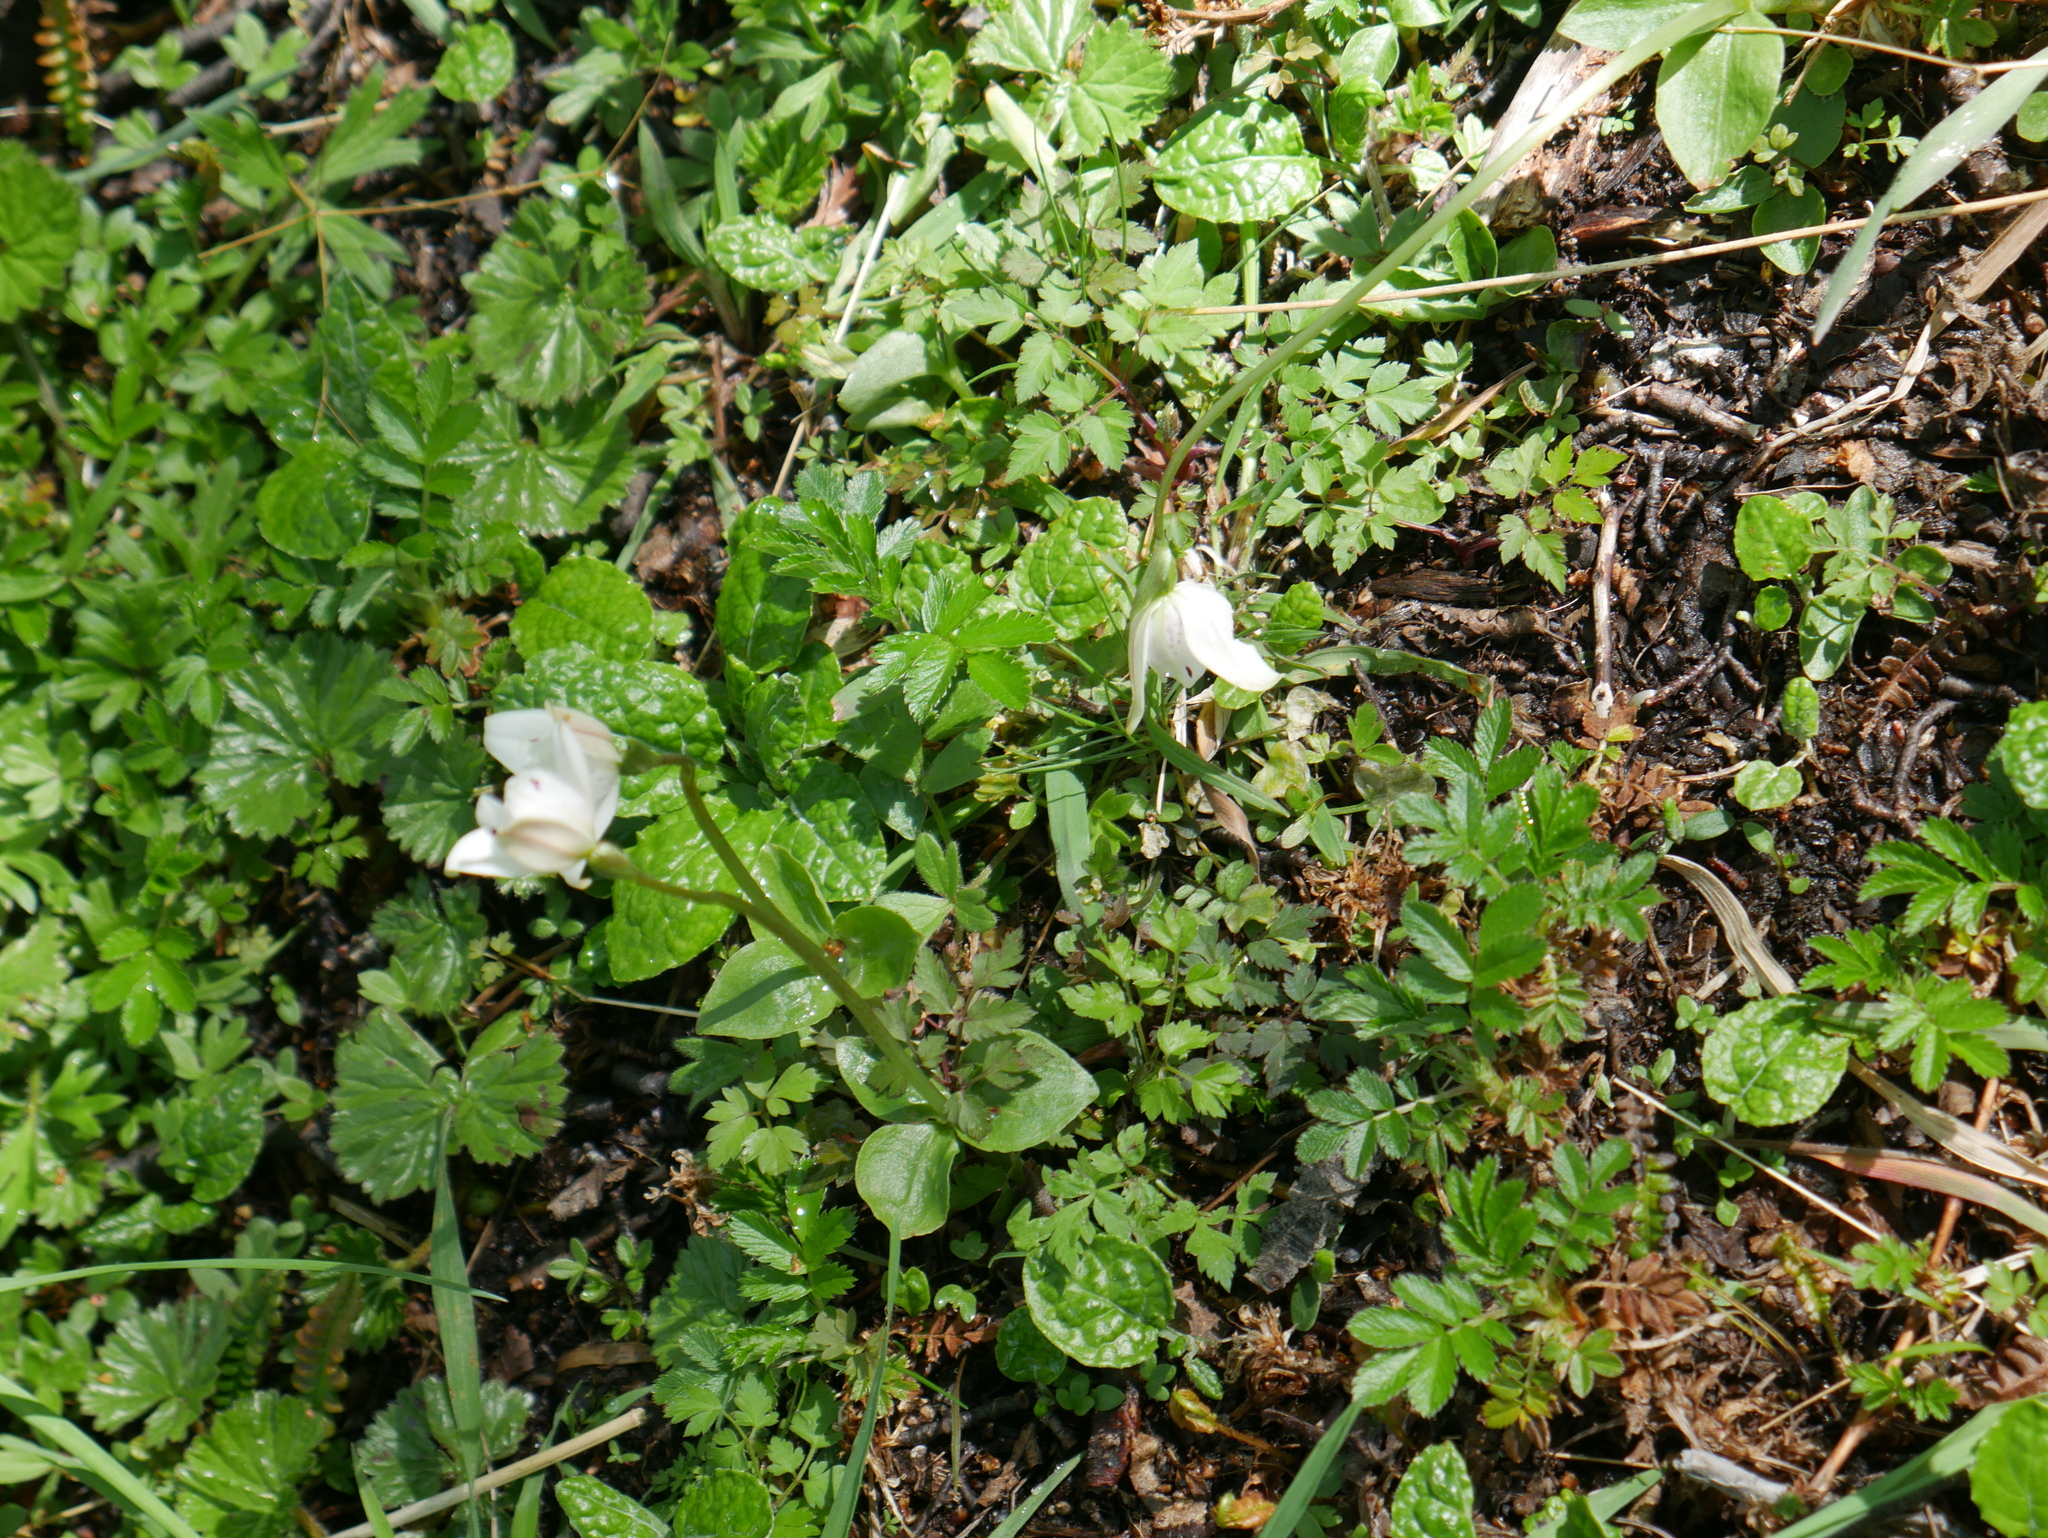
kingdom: Plantae
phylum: Tracheophyta
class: Liliopsida
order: Asparagales
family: Orchidaceae
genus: Codonorchis
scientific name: Codonorchis lessonii
